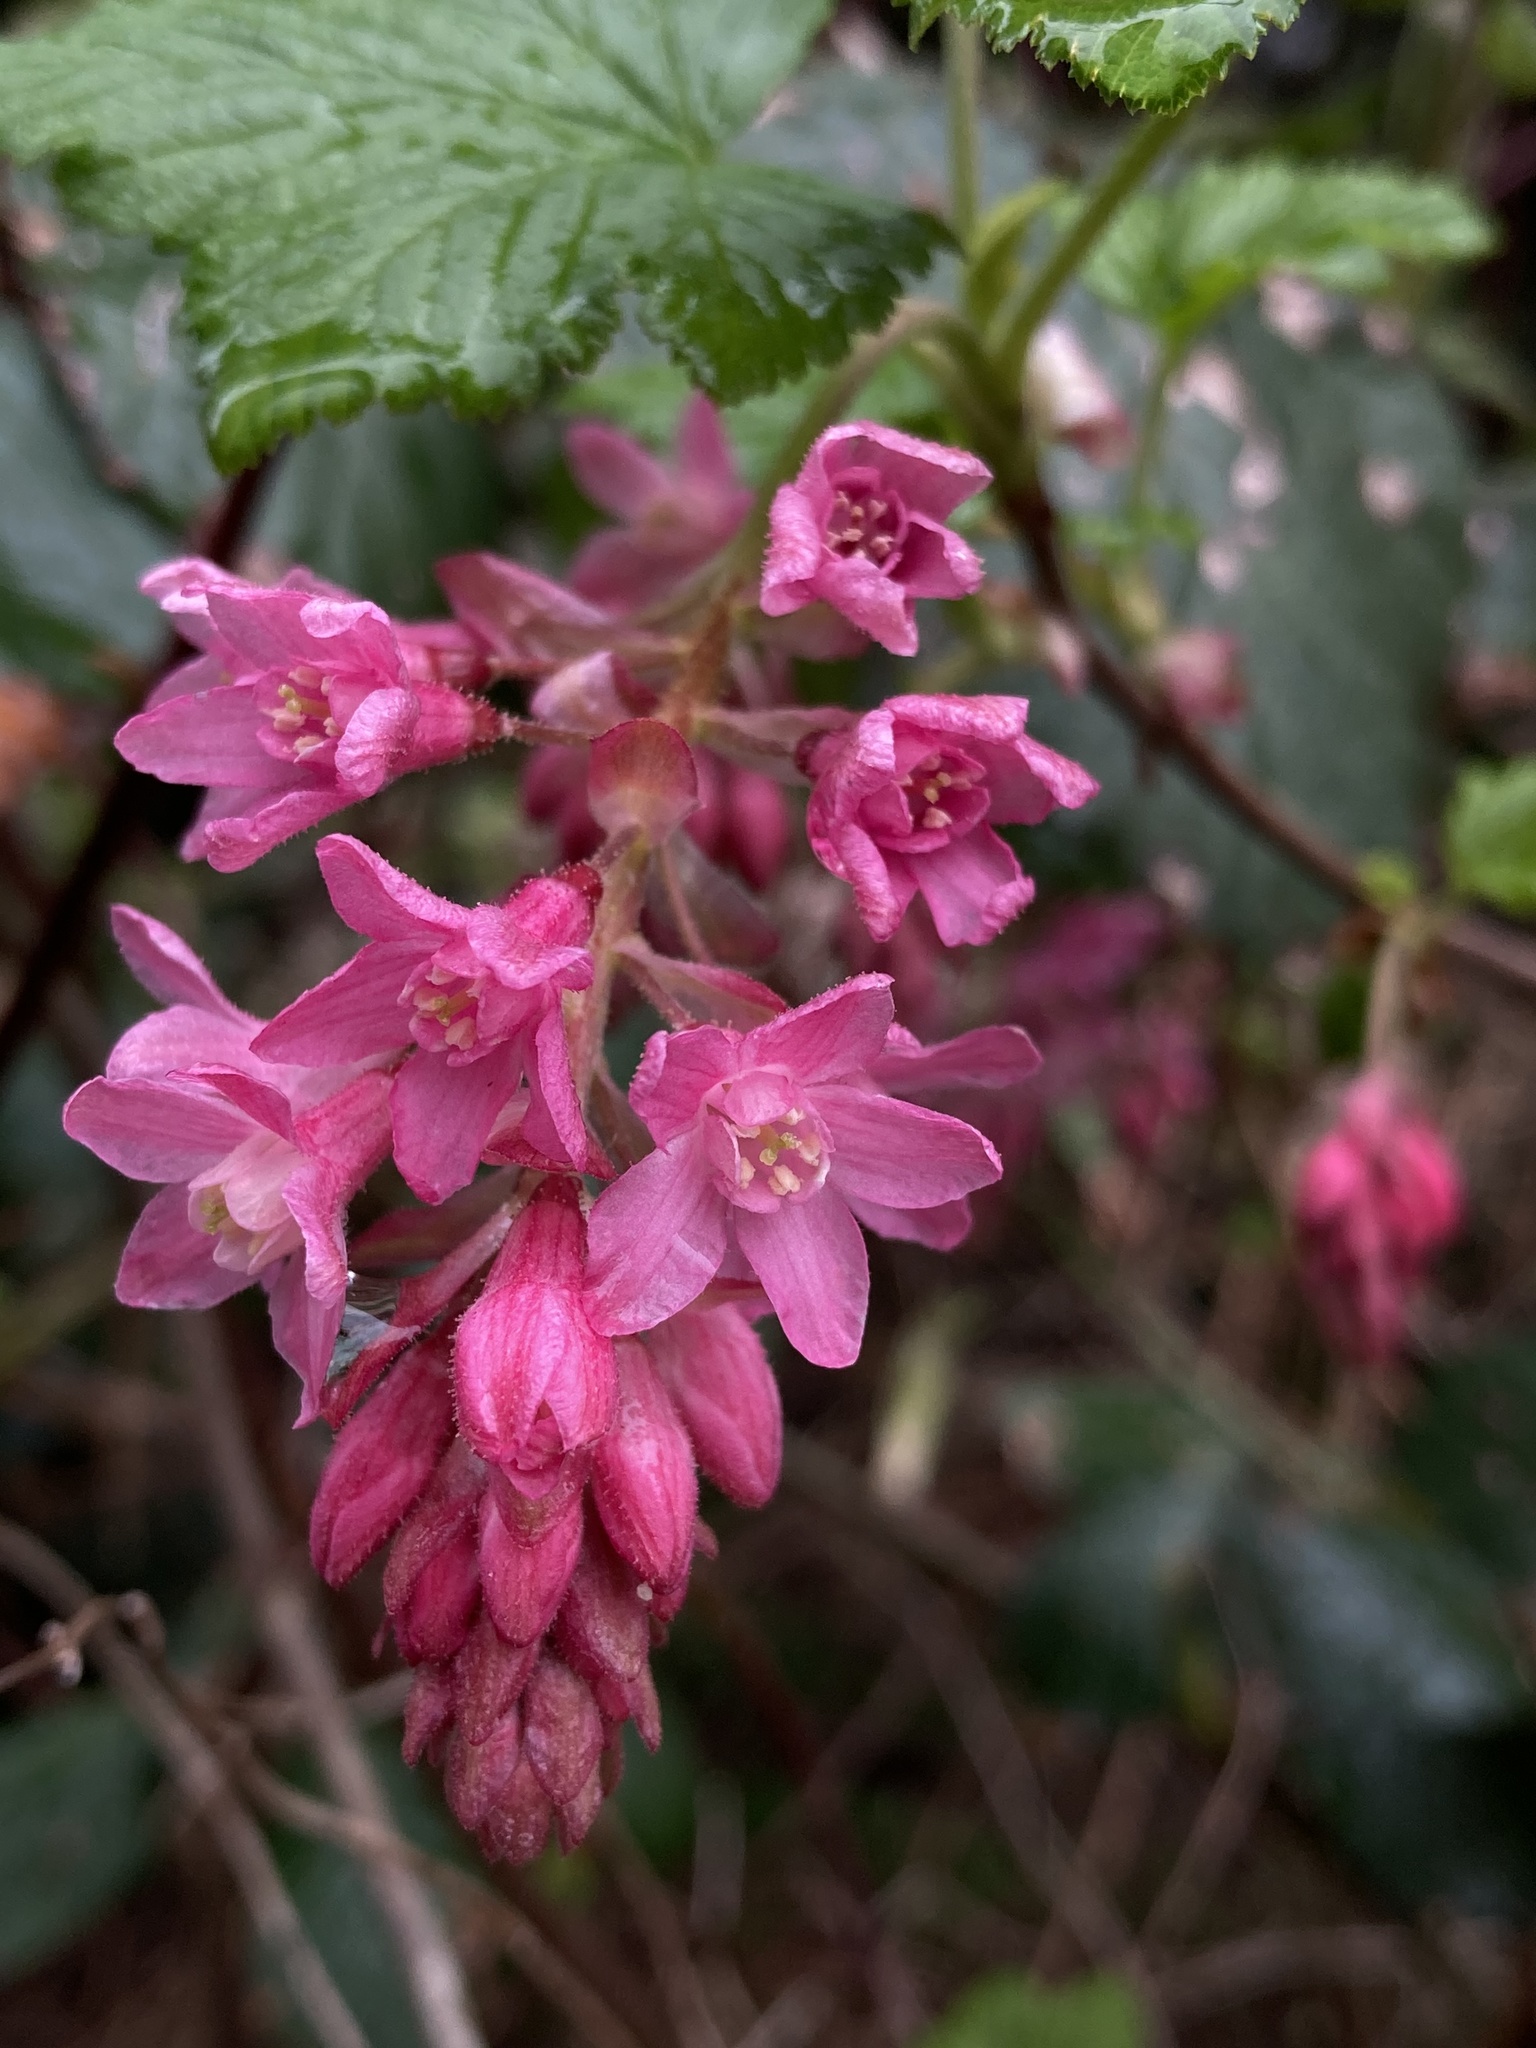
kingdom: Plantae
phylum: Tracheophyta
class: Magnoliopsida
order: Saxifragales
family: Grossulariaceae
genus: Ribes
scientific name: Ribes sanguineum
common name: Flowering currant
